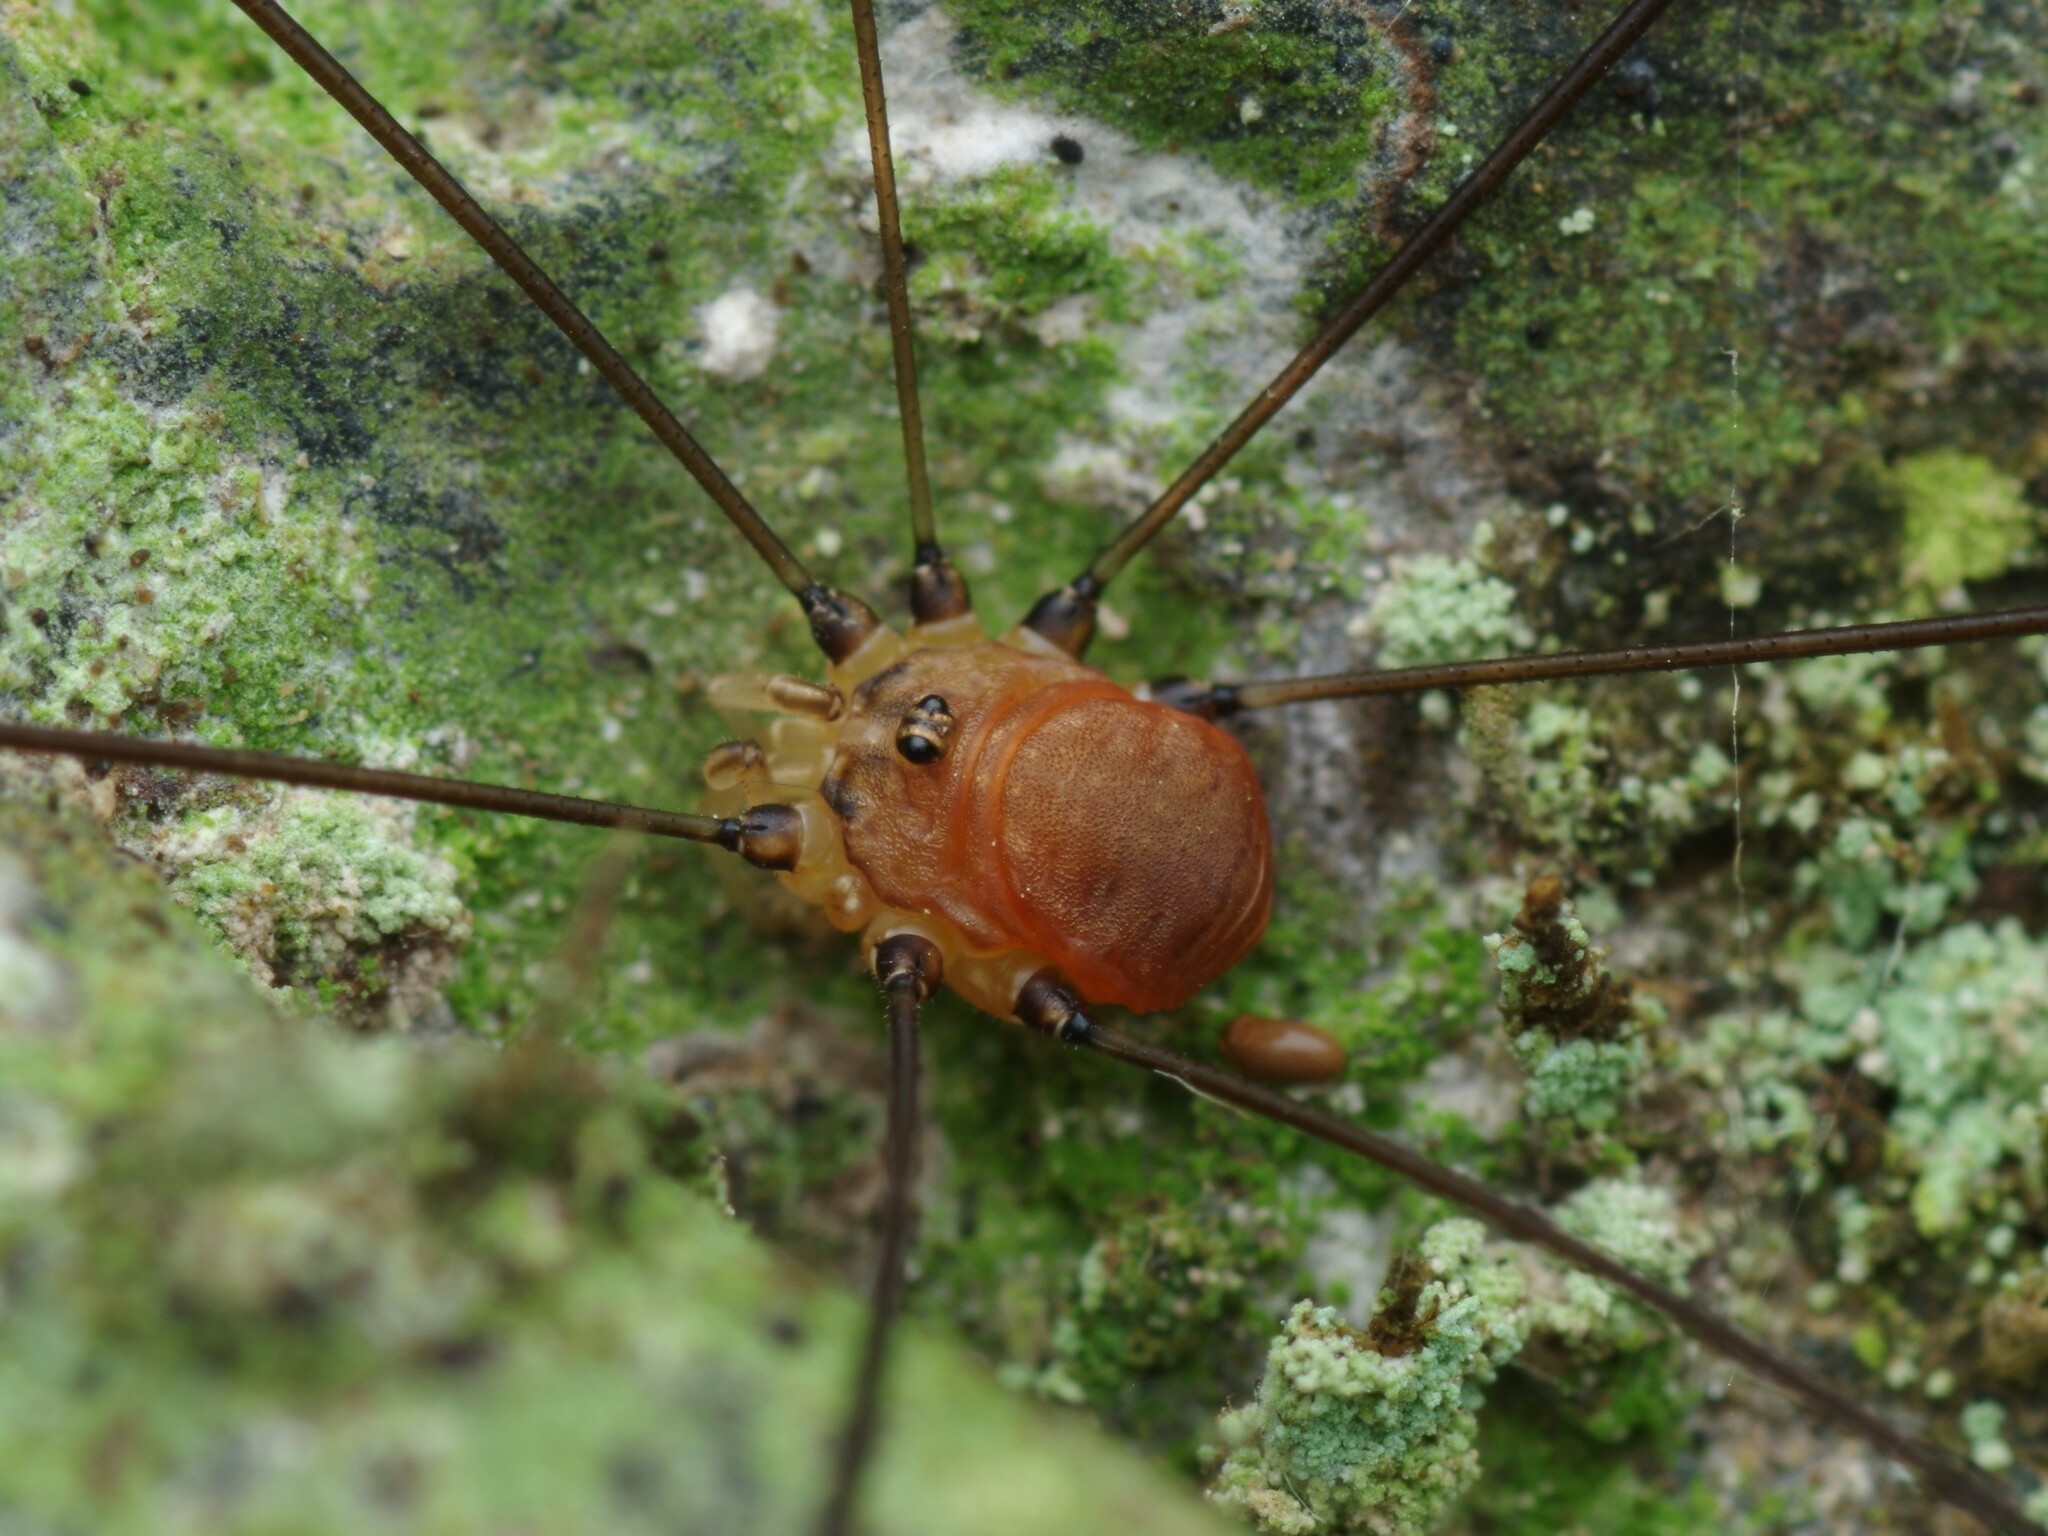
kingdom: Animalia
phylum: Arthropoda
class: Arachnida
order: Opiliones
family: Sclerosomatidae
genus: Leiobunum
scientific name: Leiobunum blackwalli
